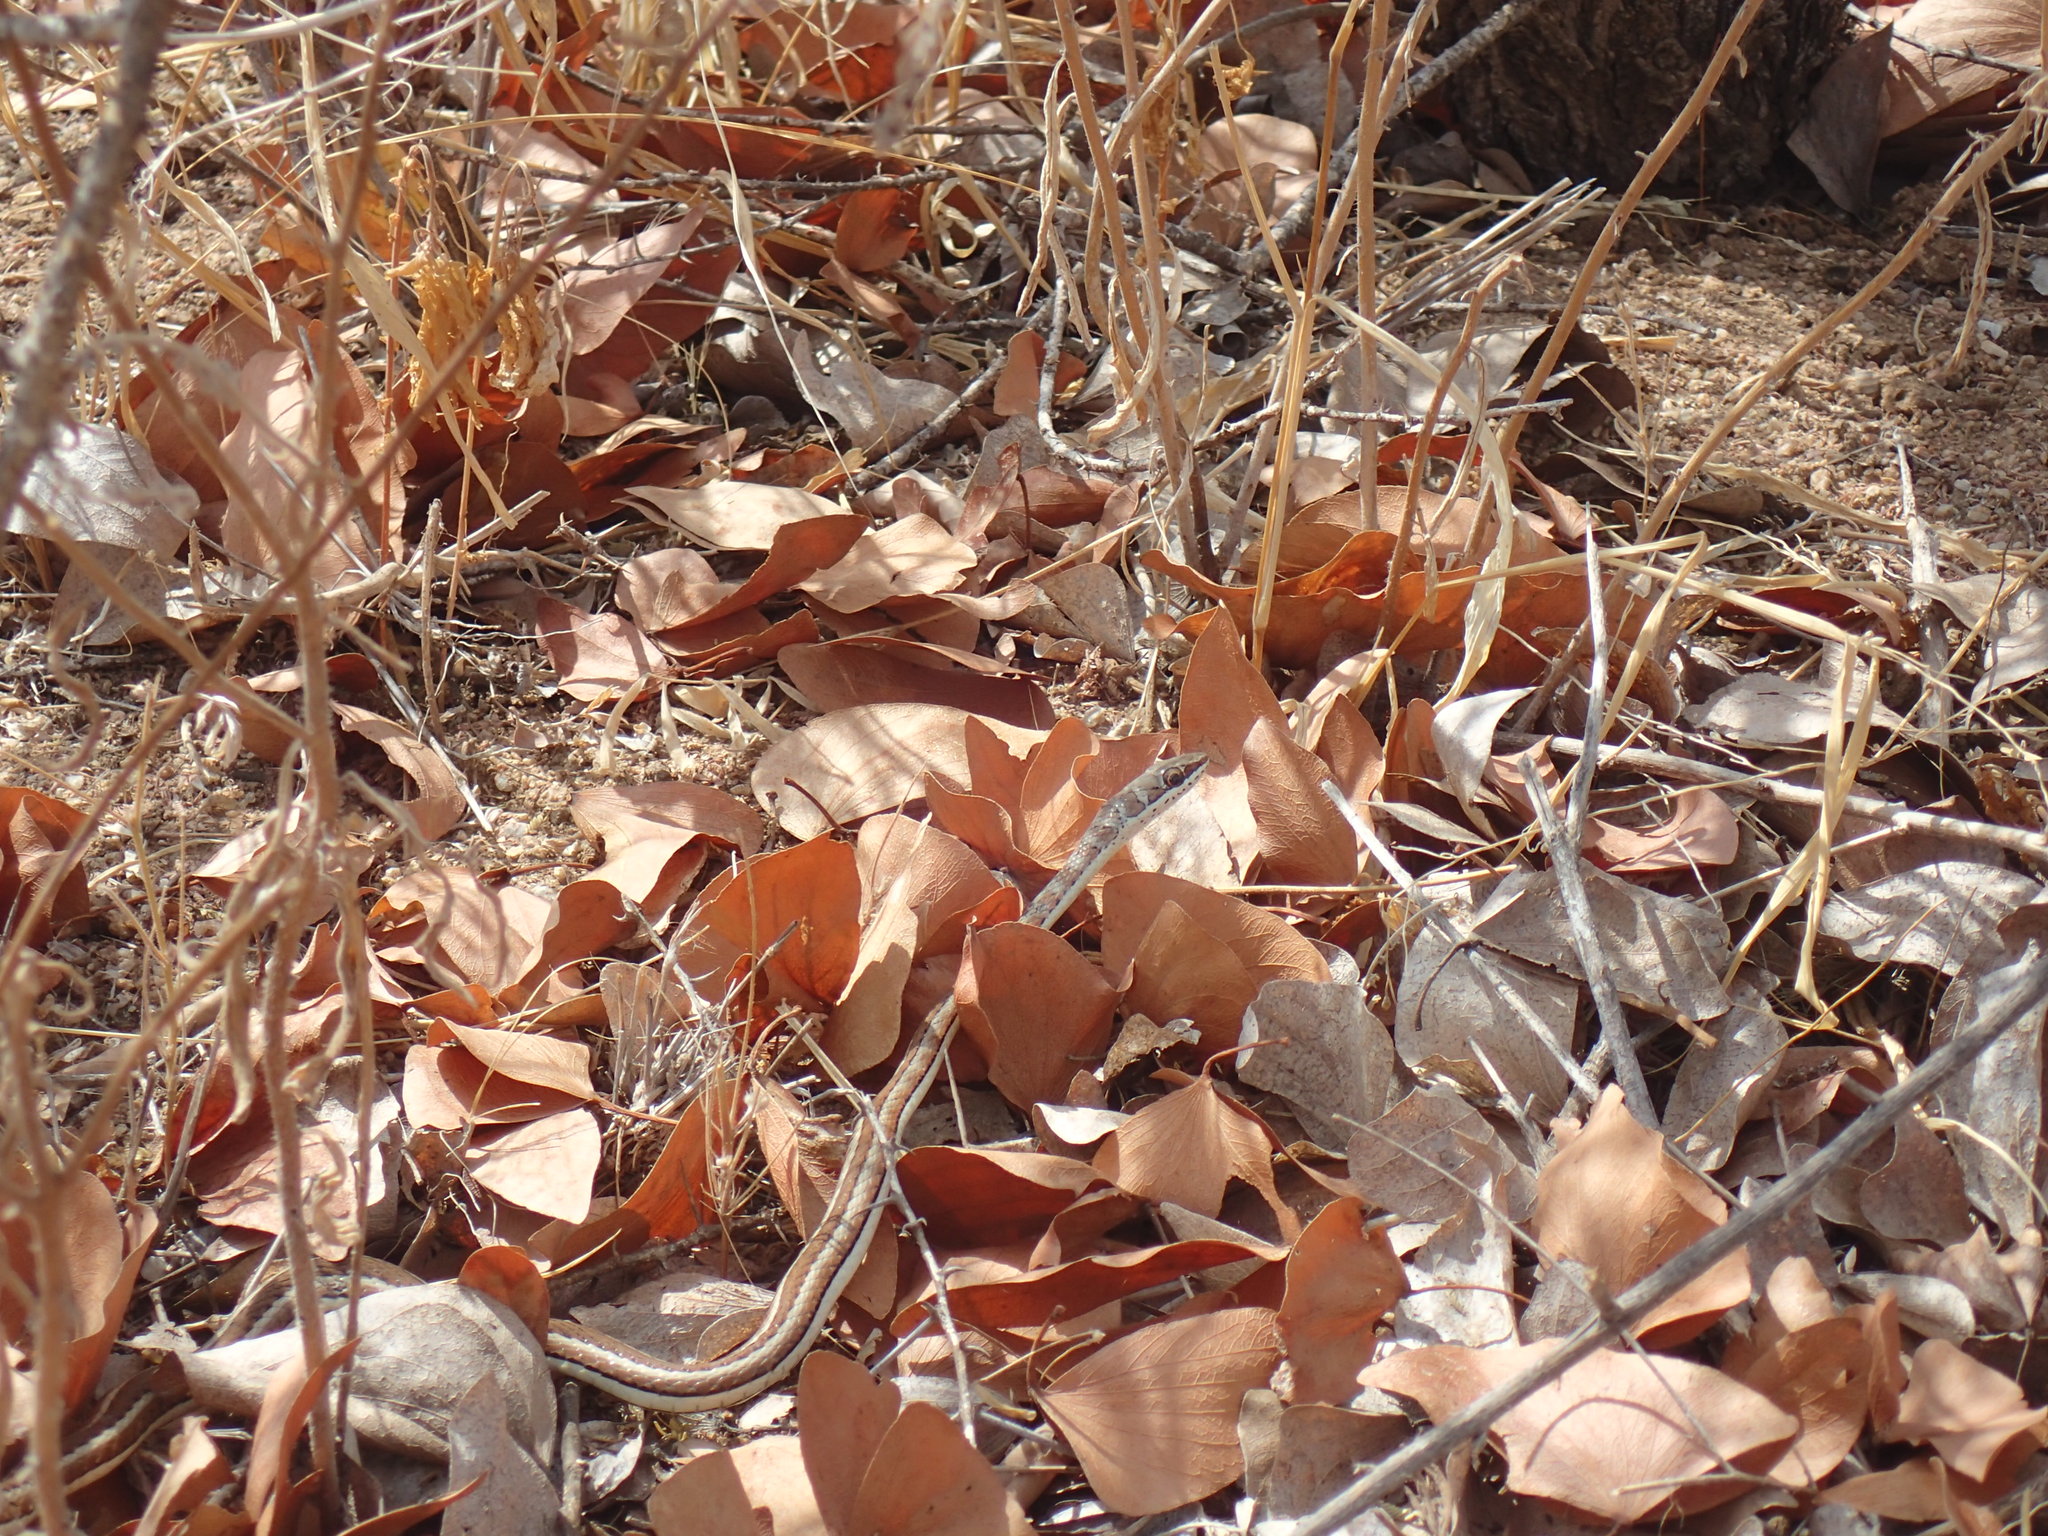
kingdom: Animalia
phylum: Chordata
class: Squamata
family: Psammophiidae
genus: Psammophis
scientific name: Psammophis subtaeniatus
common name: Stripe-bellied sand snake
